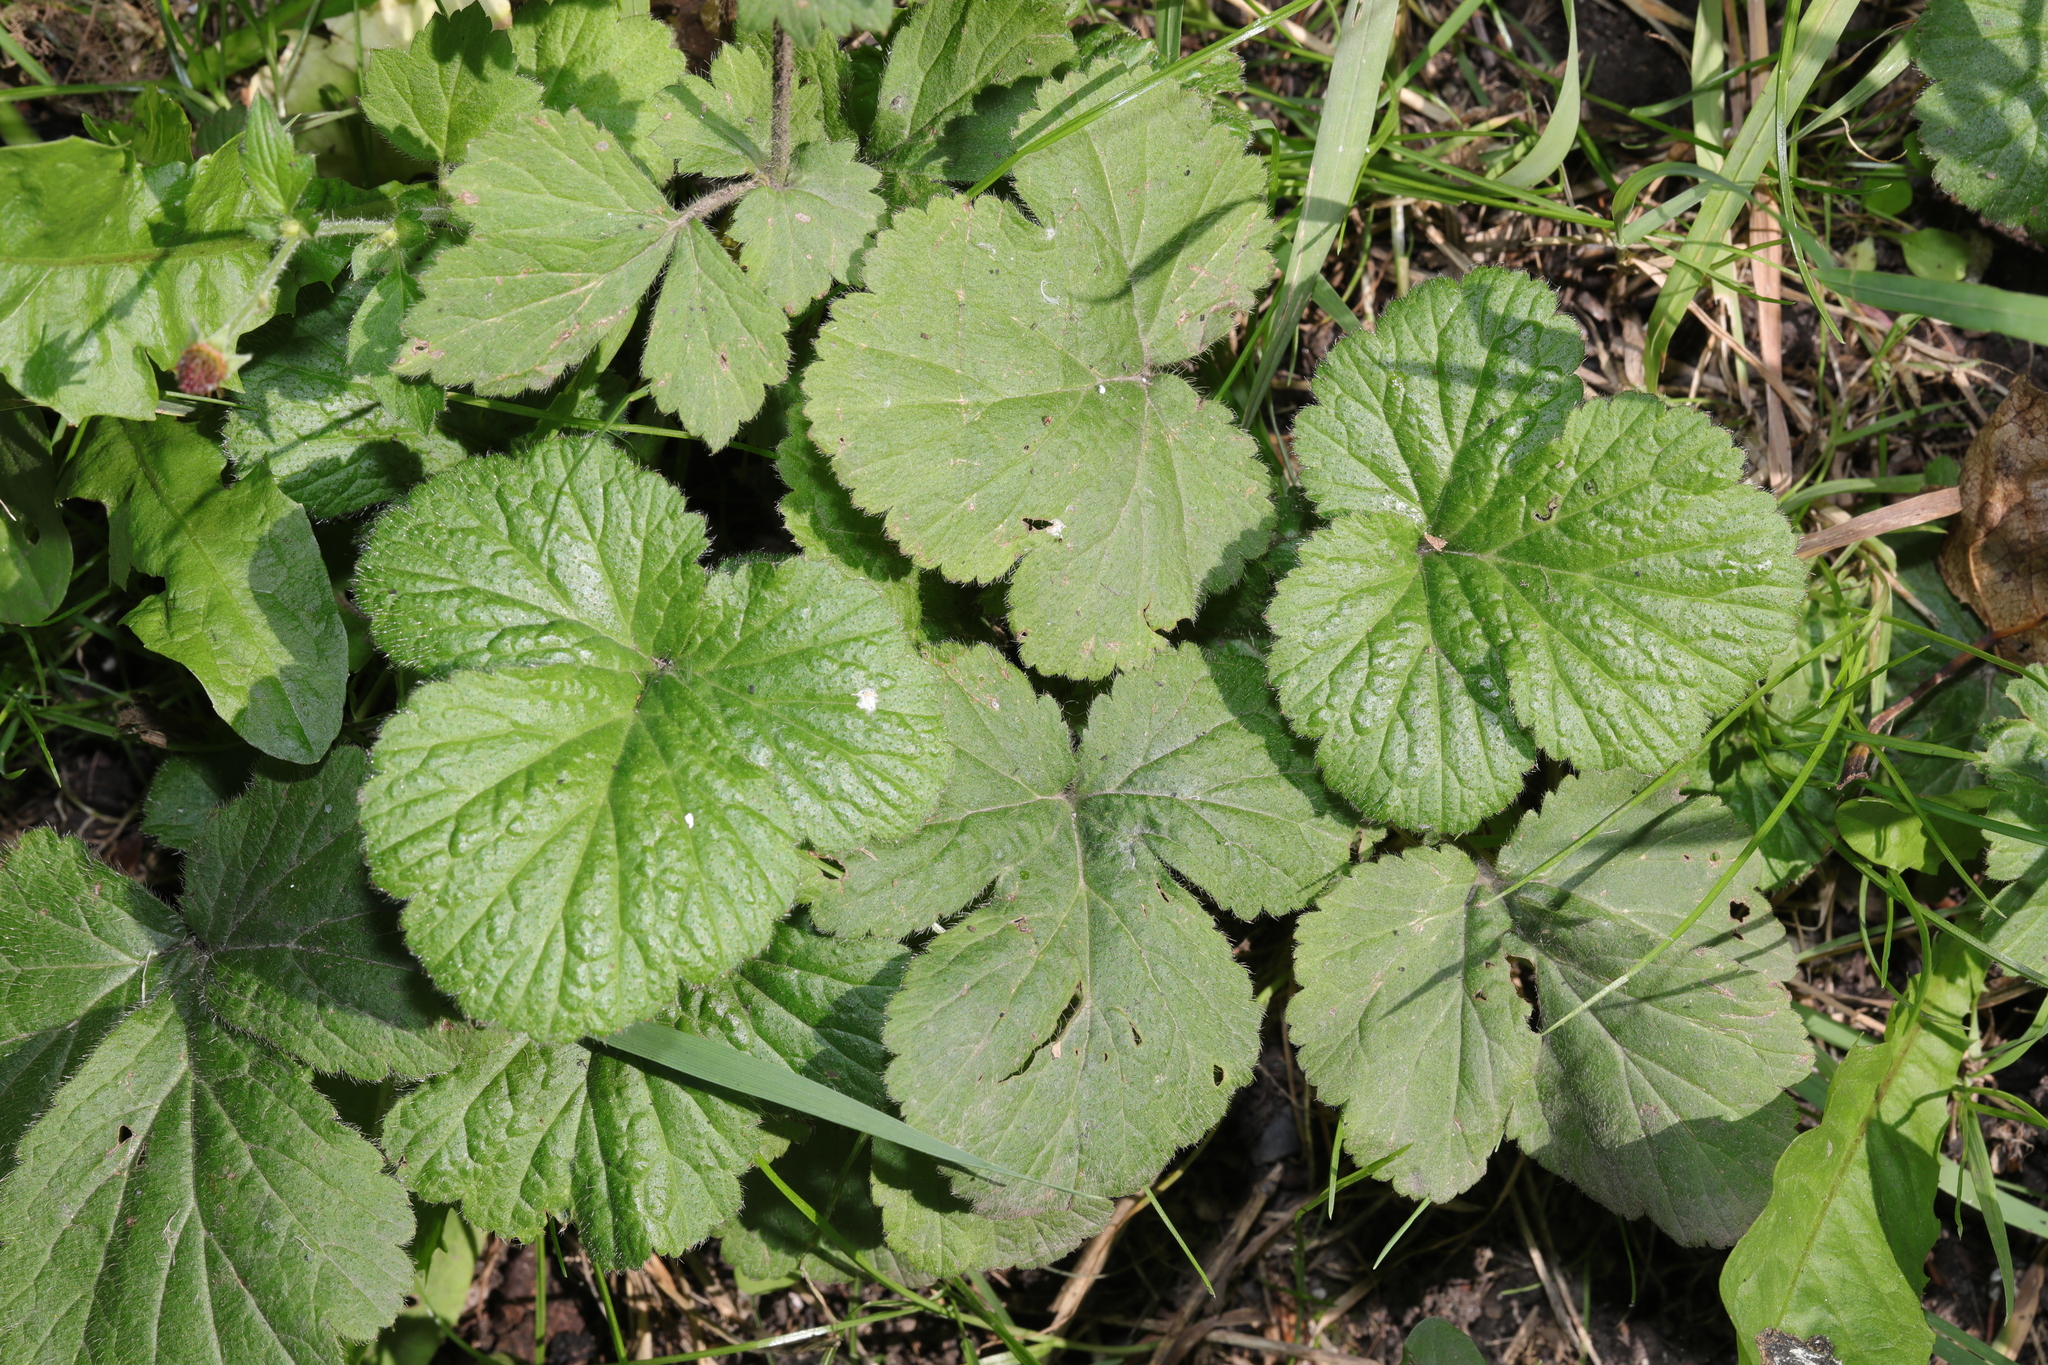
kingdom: Plantae
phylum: Tracheophyta
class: Magnoliopsida
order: Rosales
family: Rosaceae
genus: Geum
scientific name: Geum urbanum
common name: Wood avens
